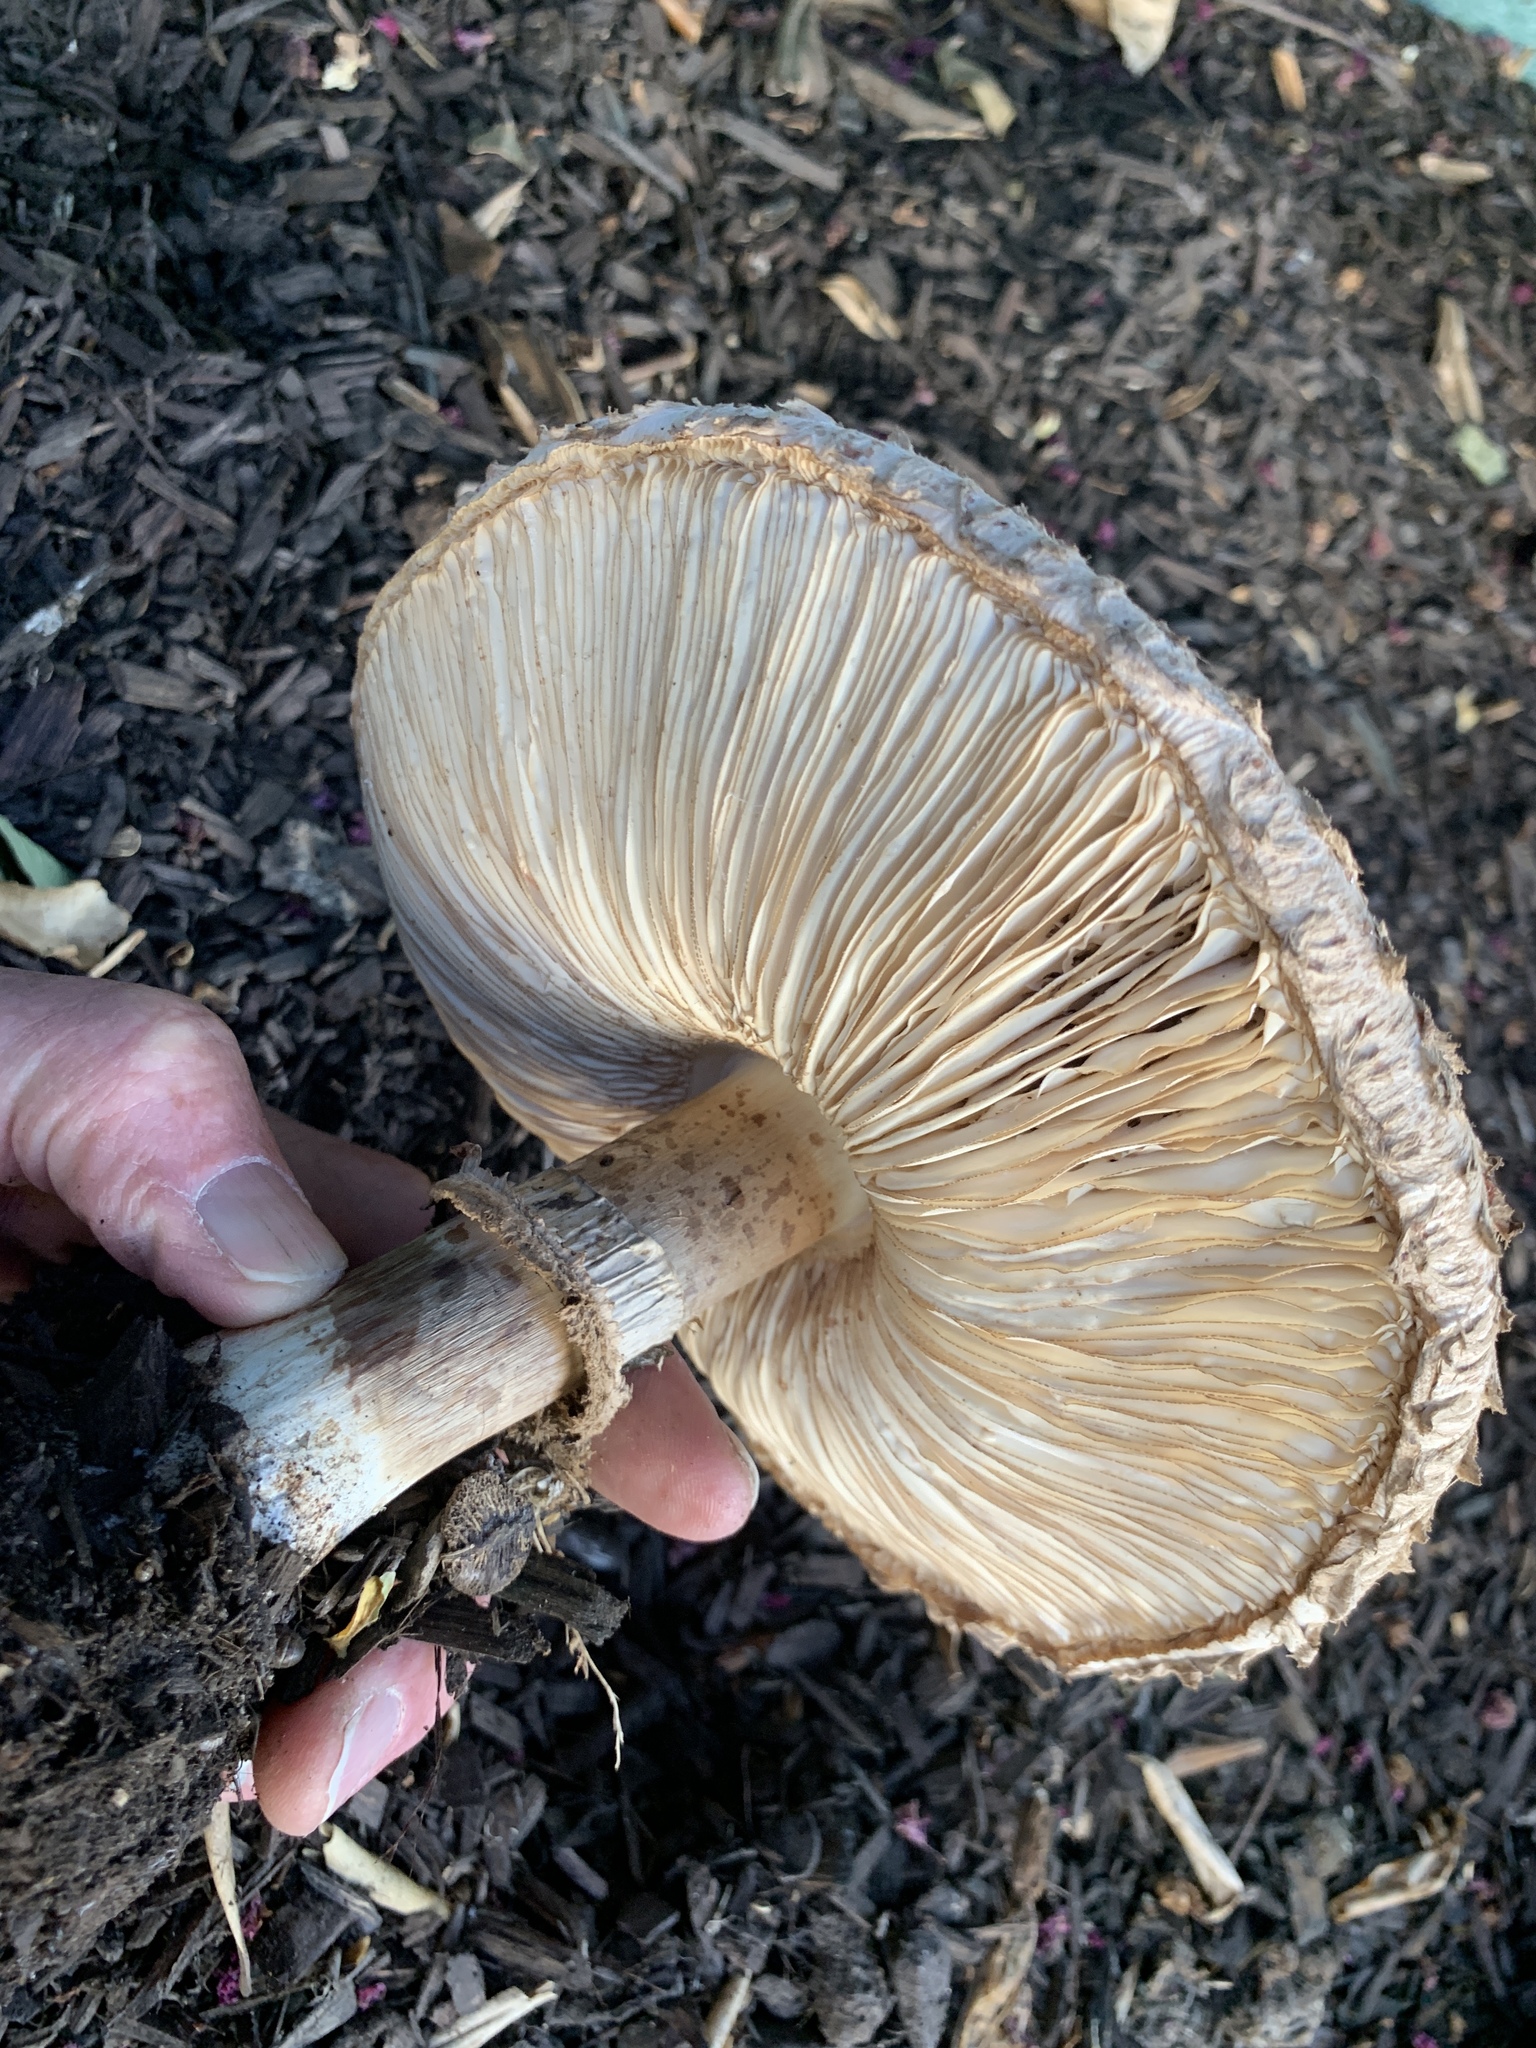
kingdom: Fungi
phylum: Basidiomycota
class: Agaricomycetes
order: Agaricales
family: Agaricaceae
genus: Chlorophyllum
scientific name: Chlorophyllum brunneum
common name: Brown parasol
